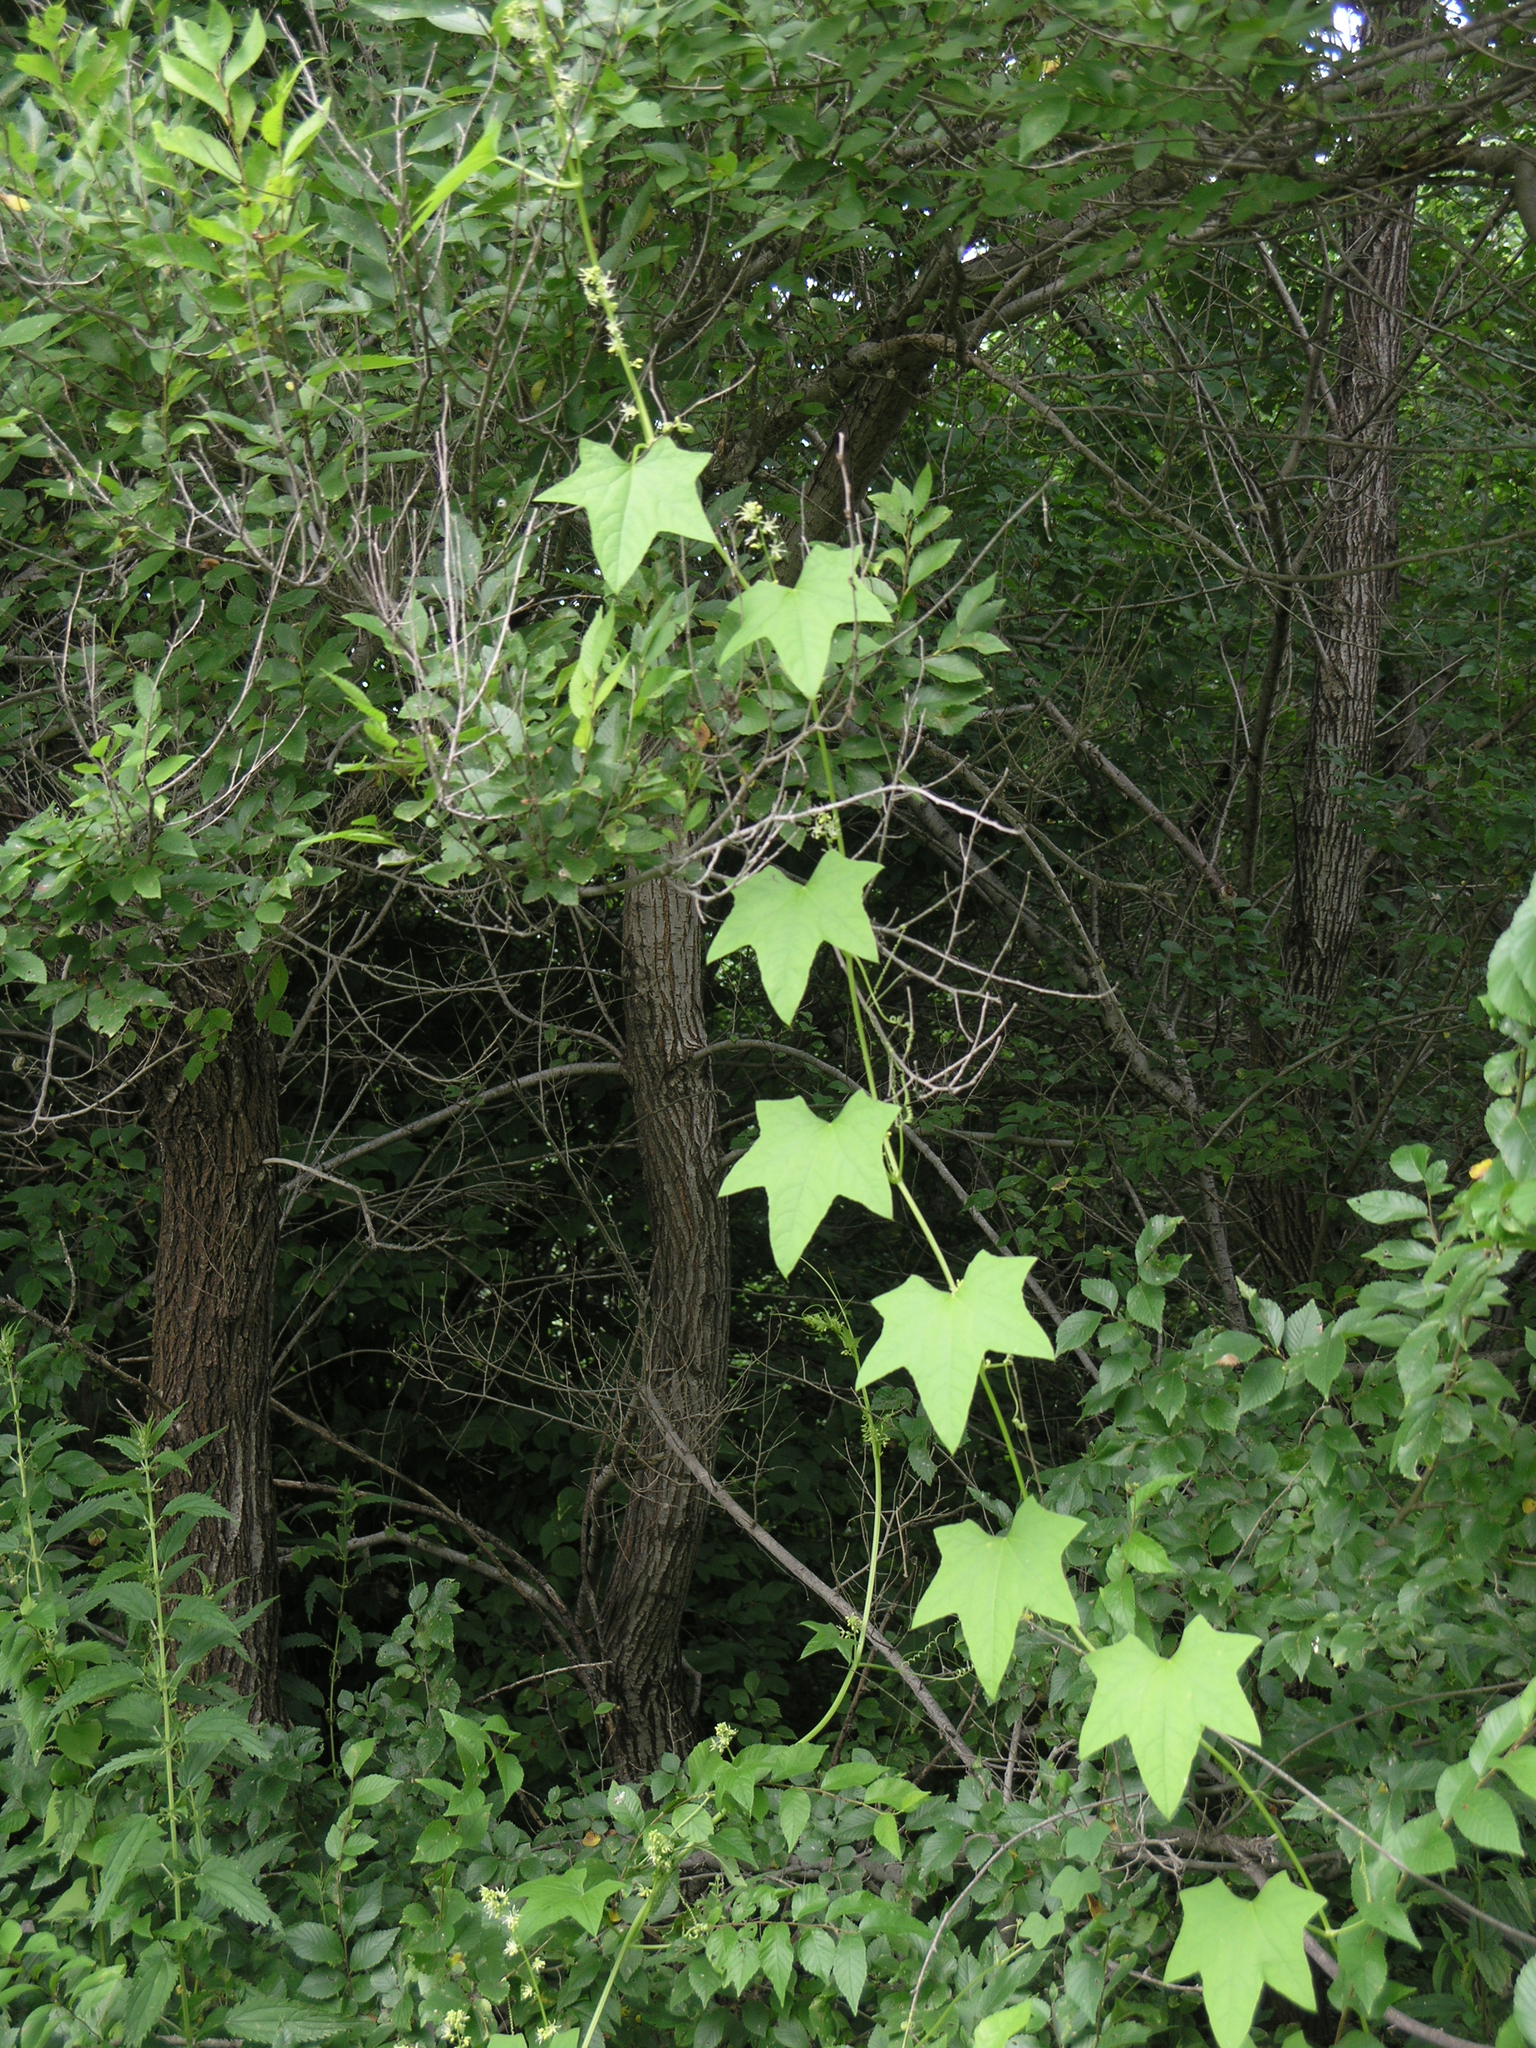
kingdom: Plantae
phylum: Tracheophyta
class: Magnoliopsida
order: Cucurbitales
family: Cucurbitaceae
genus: Echinocystis
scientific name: Echinocystis lobata
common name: Wild cucumber
